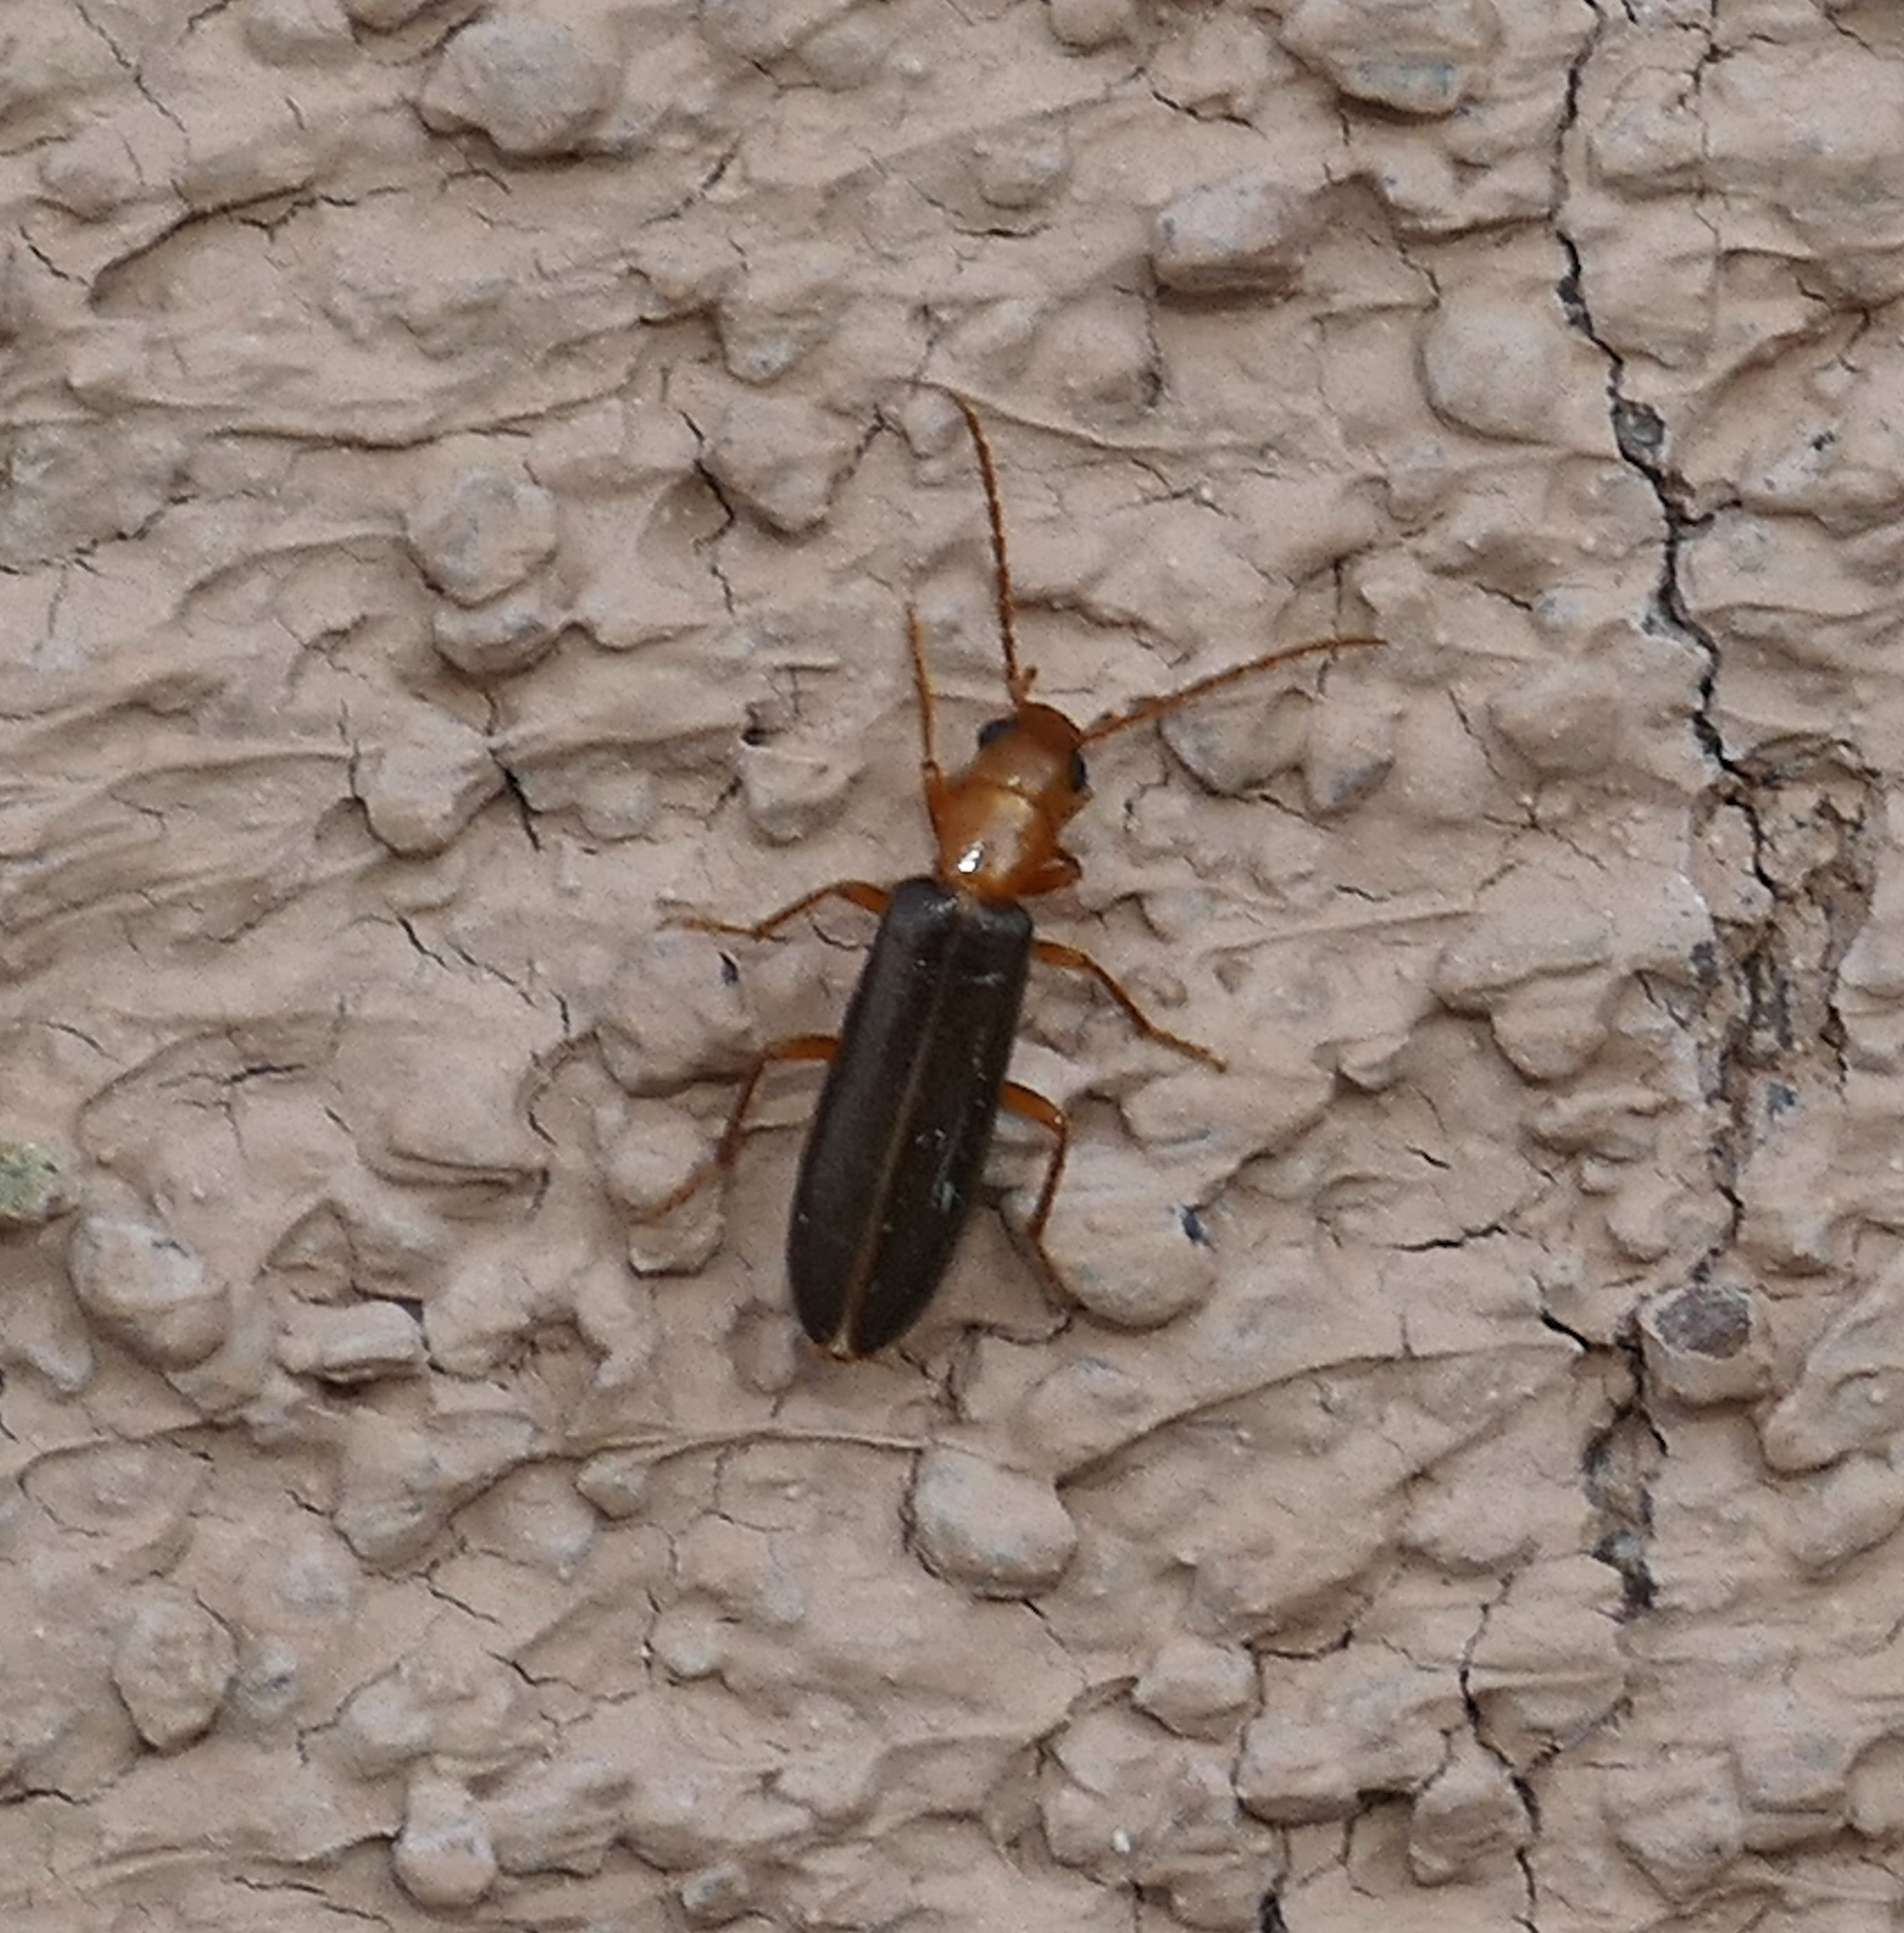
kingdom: Animalia
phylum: Arthropoda
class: Insecta
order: Coleoptera
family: Oedemeridae
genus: Xanthochroina
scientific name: Xanthochroina bicolor
